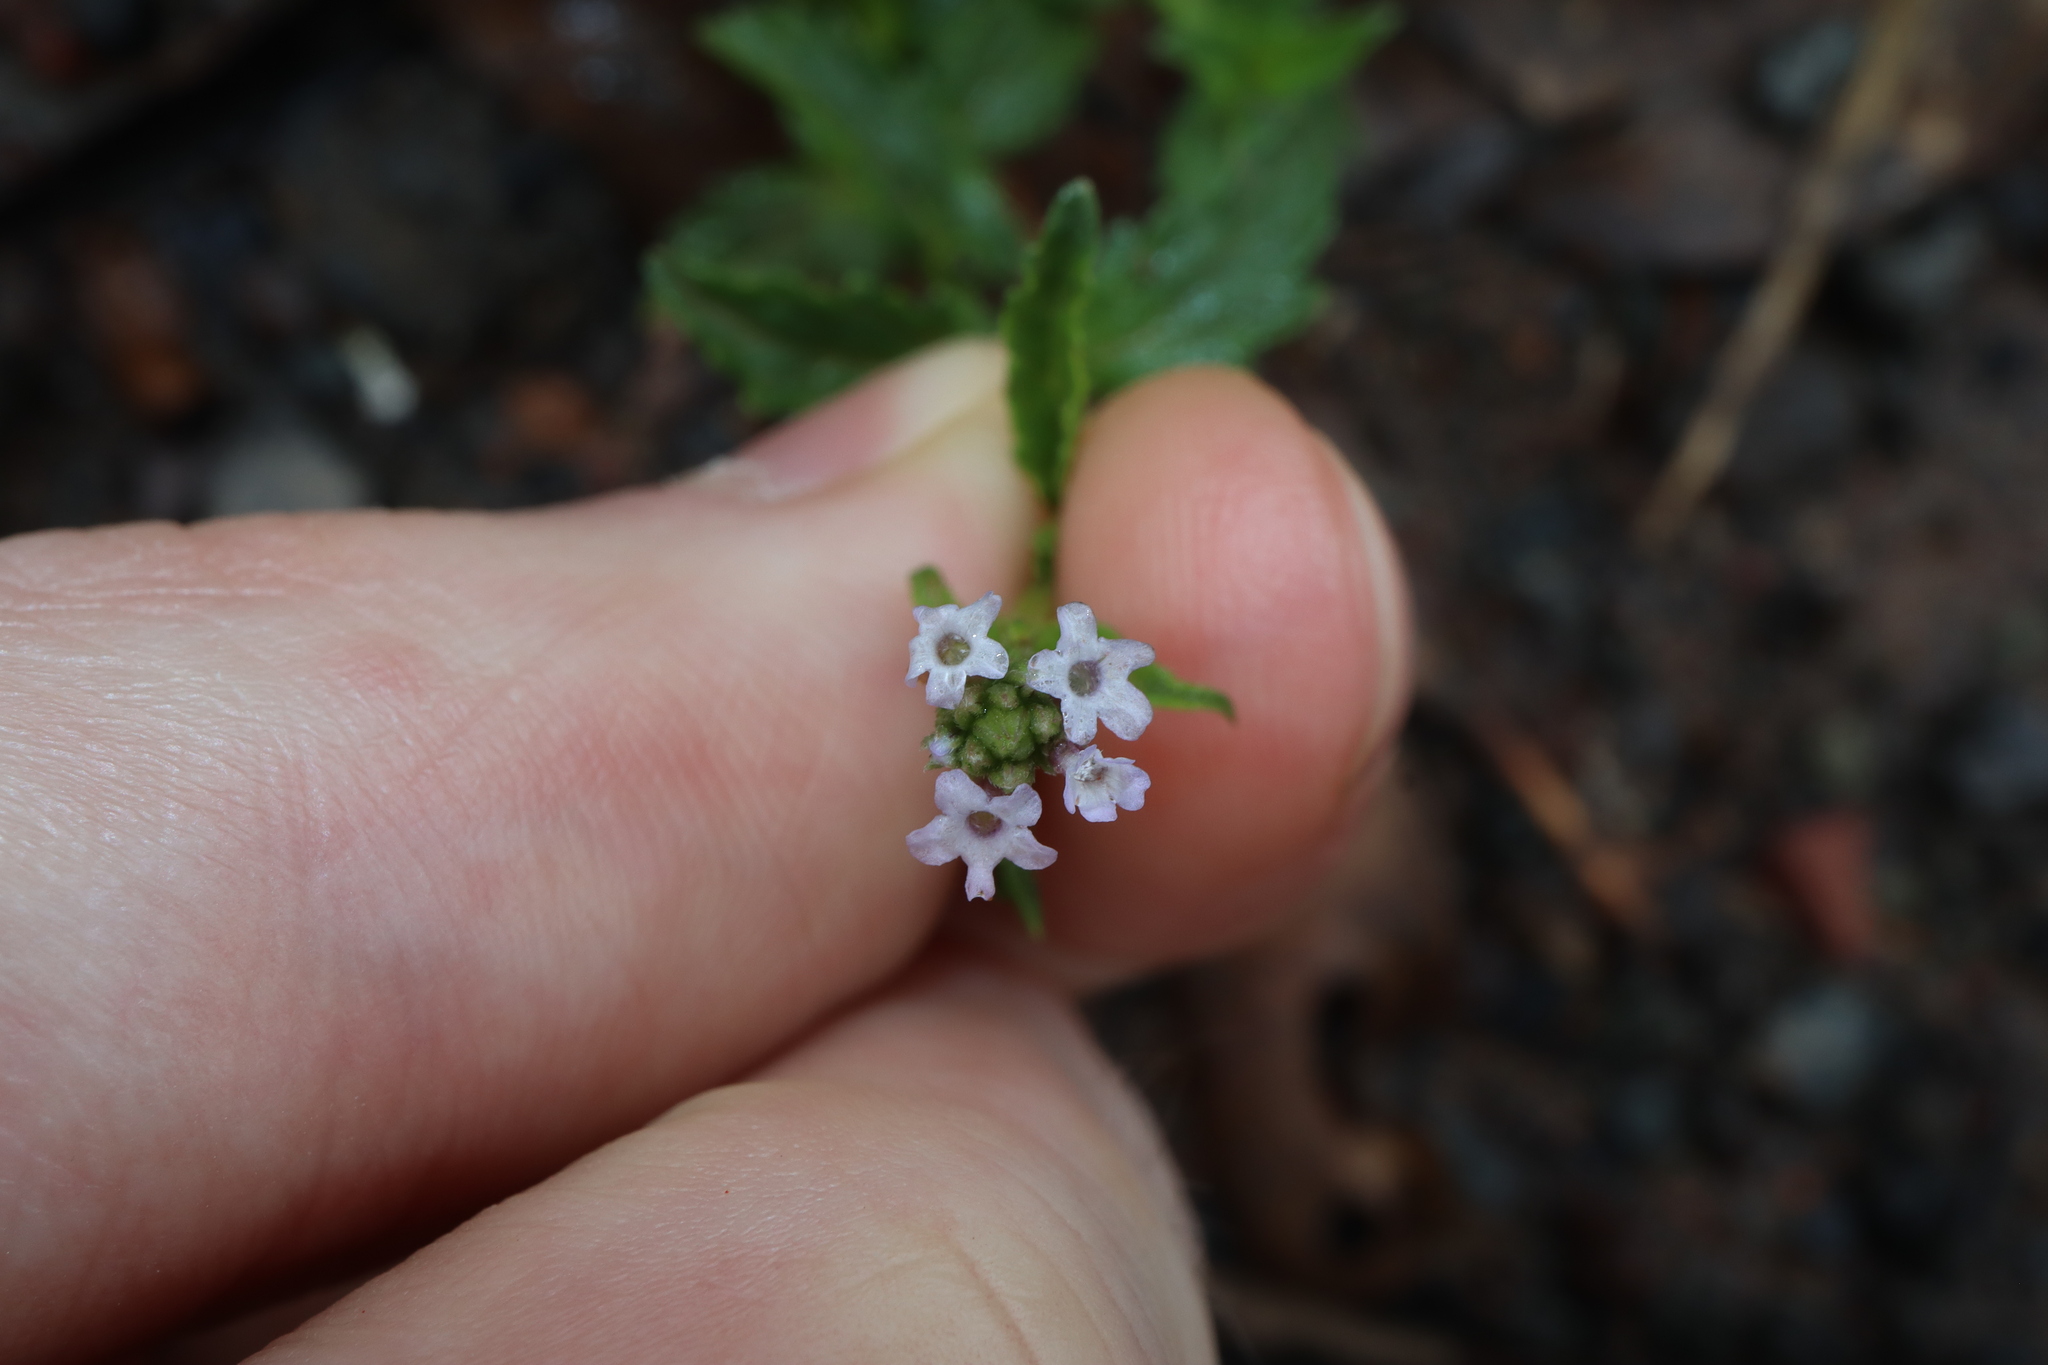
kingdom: Plantae
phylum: Tracheophyta
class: Magnoliopsida
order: Boraginales
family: Heliotropiaceae
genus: Heliotropium
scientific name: Heliotropium amplexicaule
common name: Clasping heliotrope
